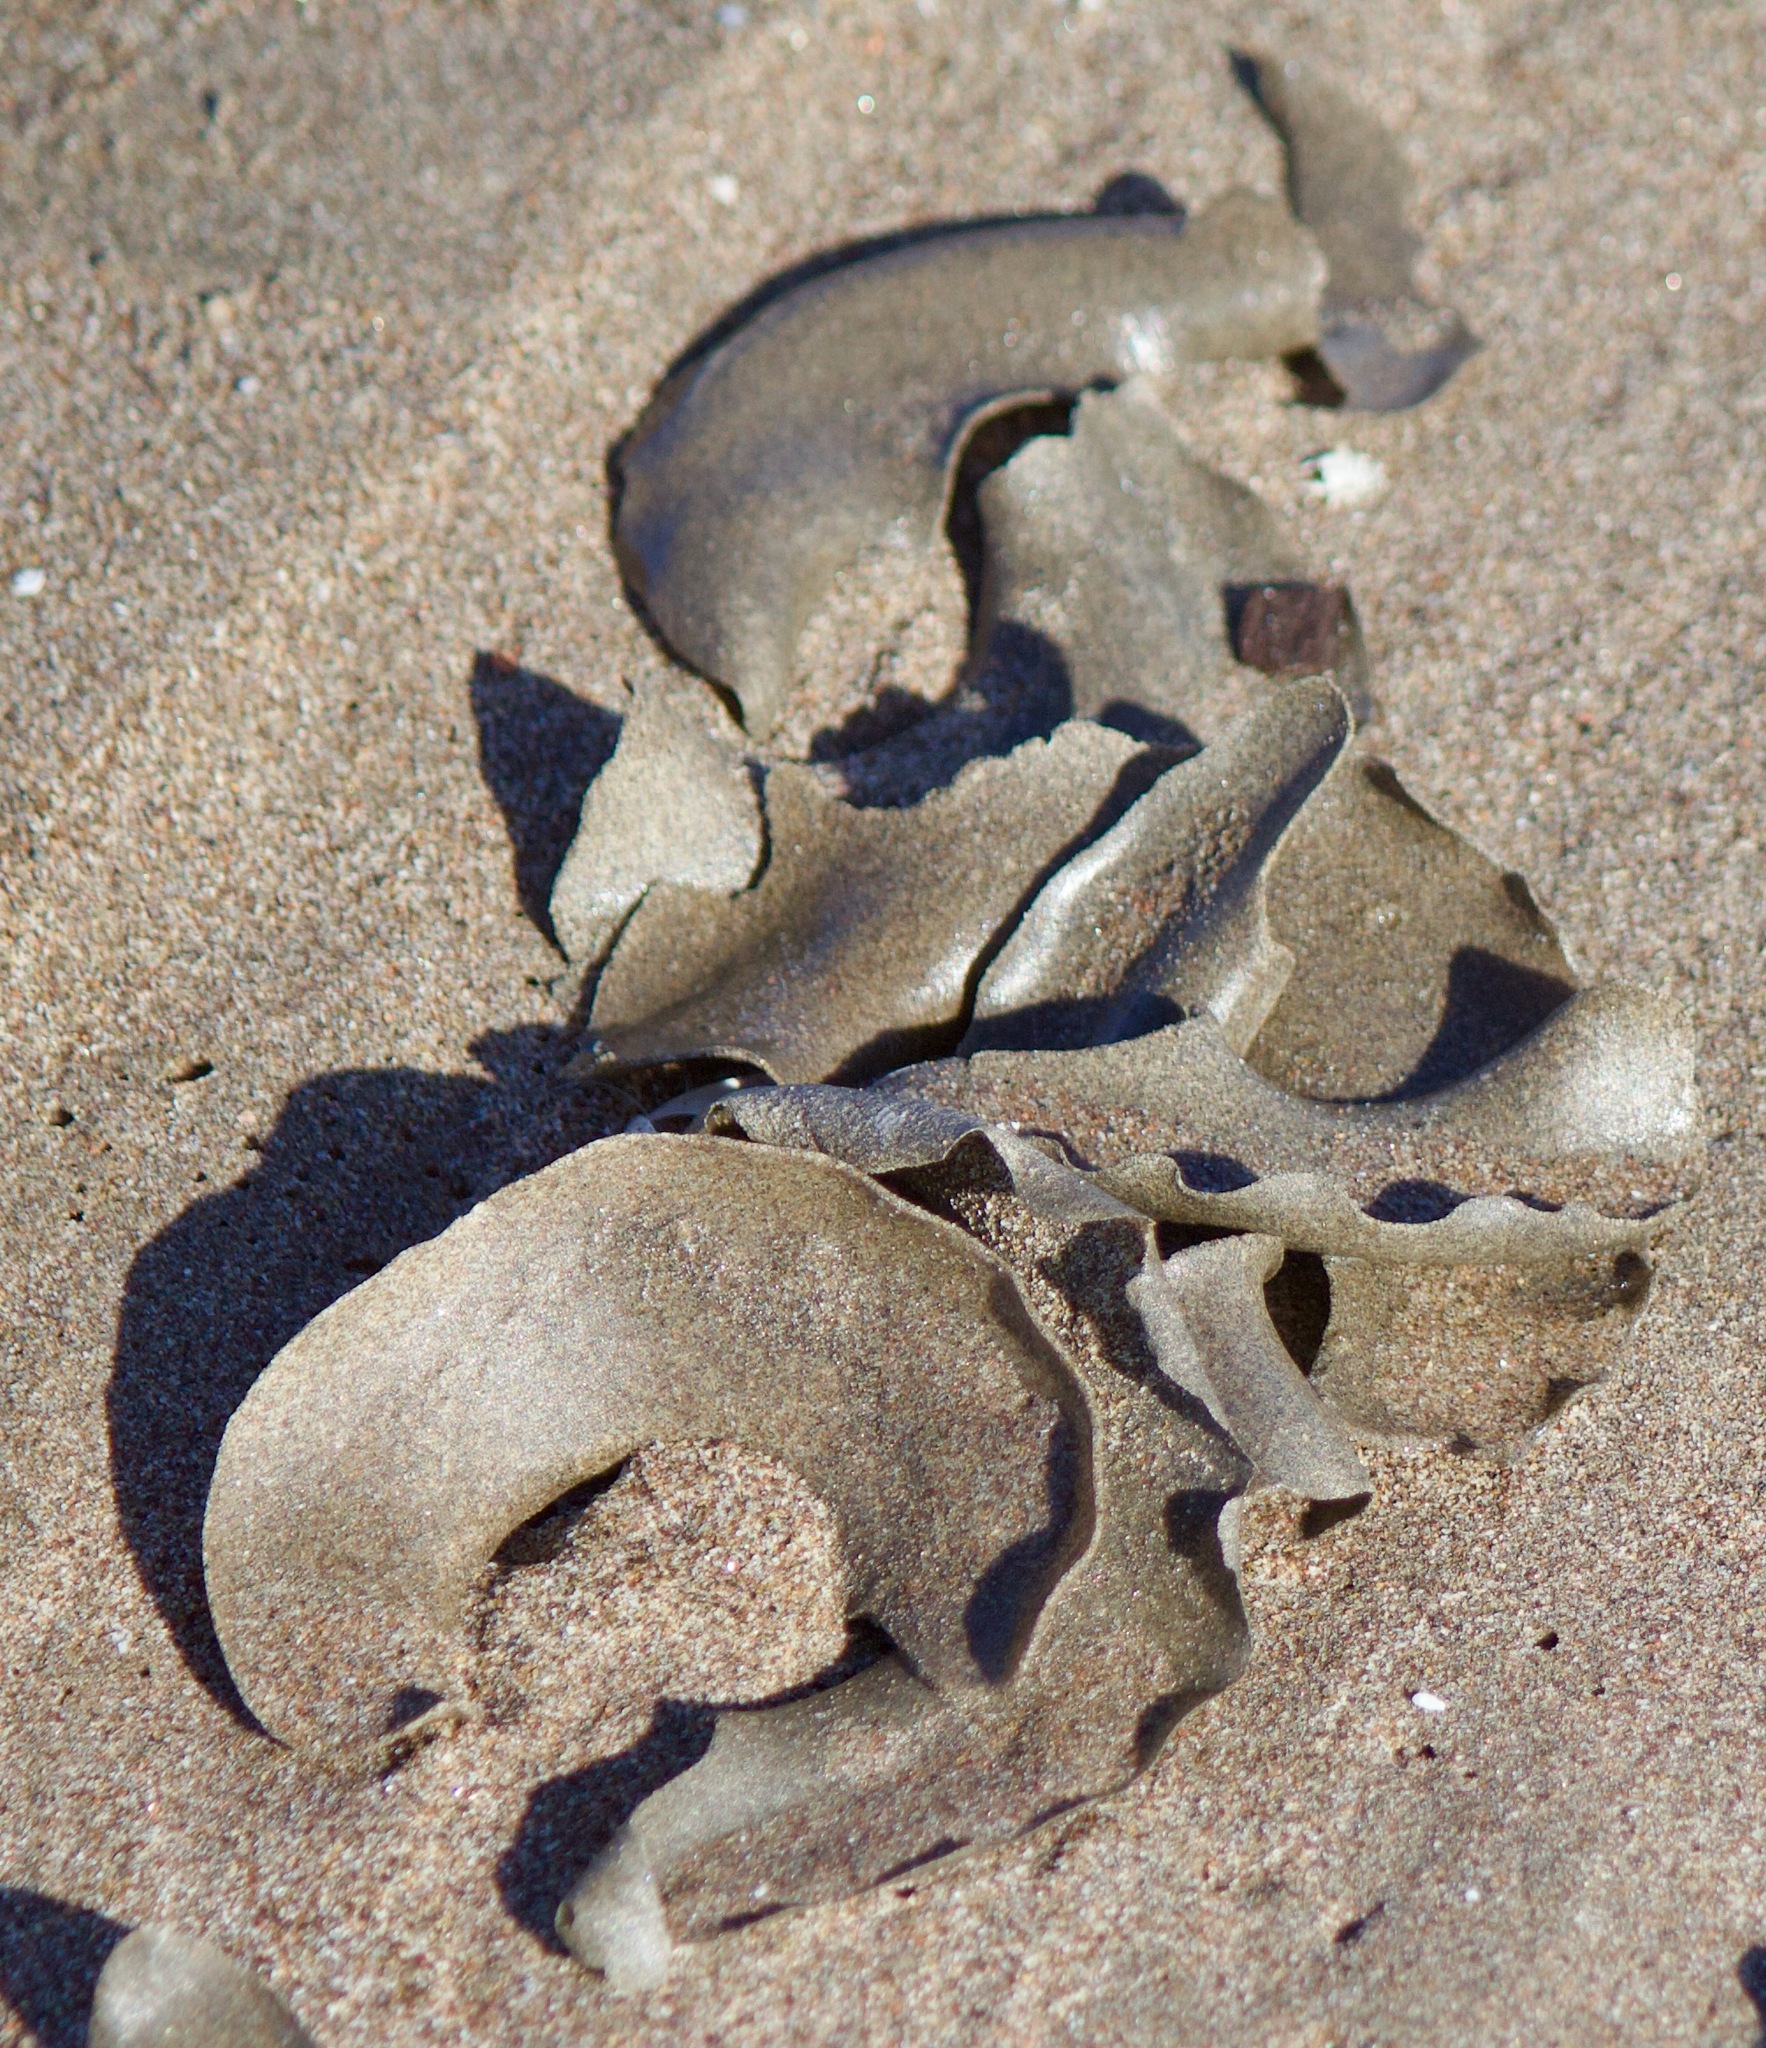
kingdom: Animalia
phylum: Mollusca
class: Gastropoda
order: Littorinimorpha
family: Naticidae
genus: Sinum
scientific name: Sinum cymba
